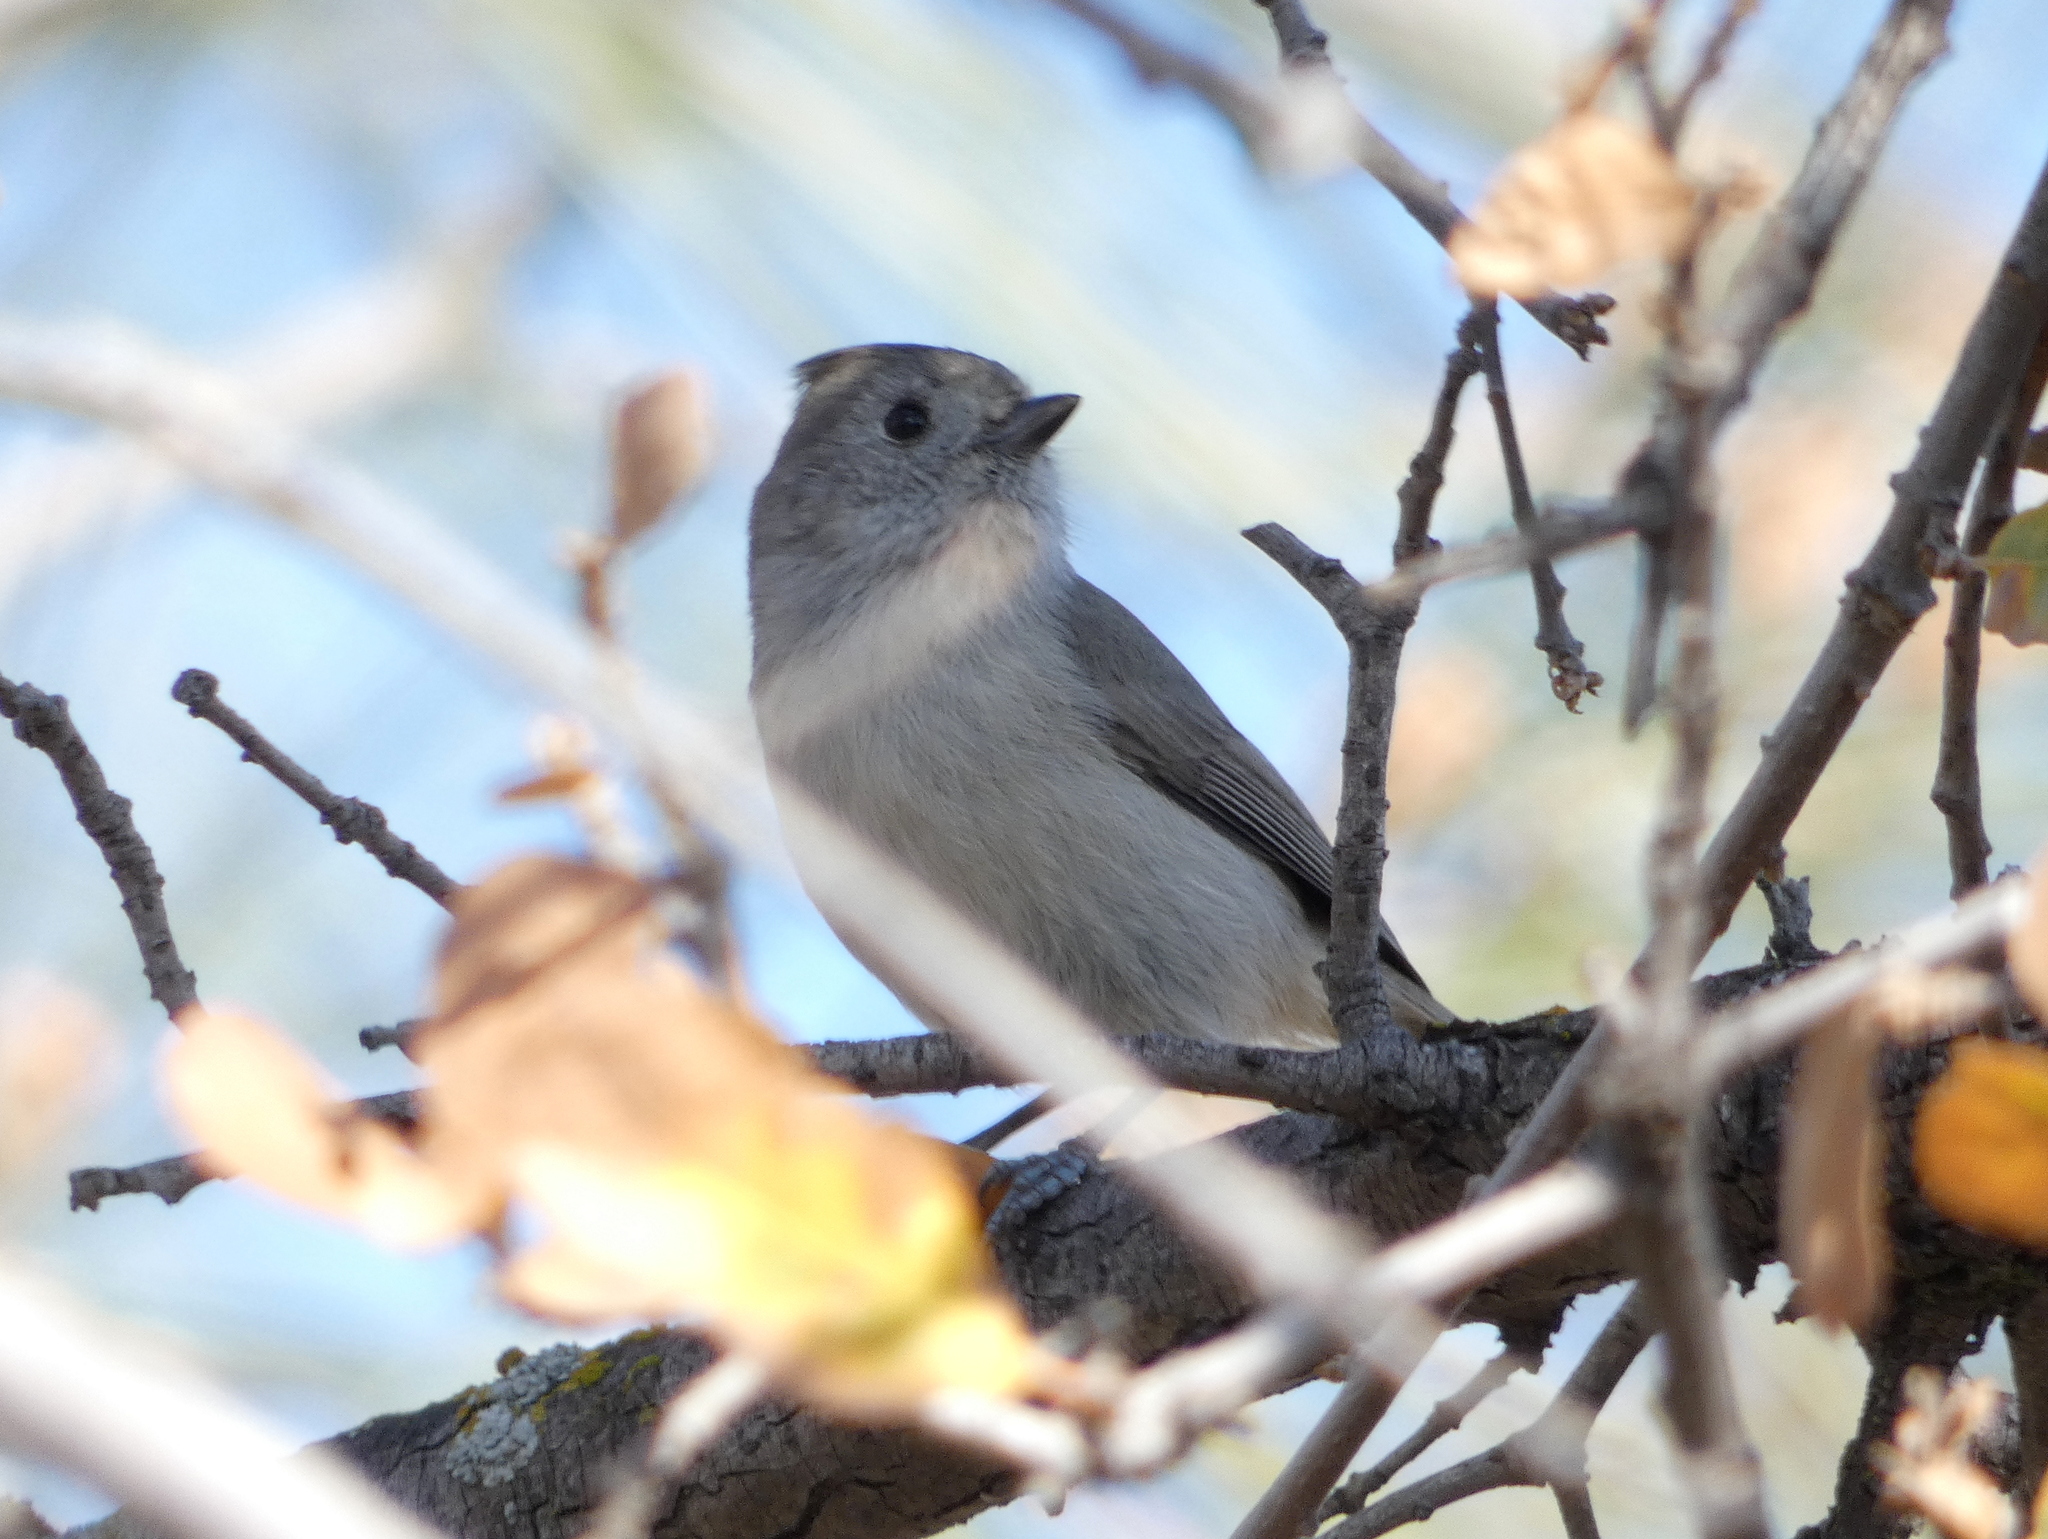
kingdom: Animalia
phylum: Chordata
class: Aves
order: Passeriformes
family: Paridae
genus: Baeolophus
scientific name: Baeolophus inornatus
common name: Oak titmouse
